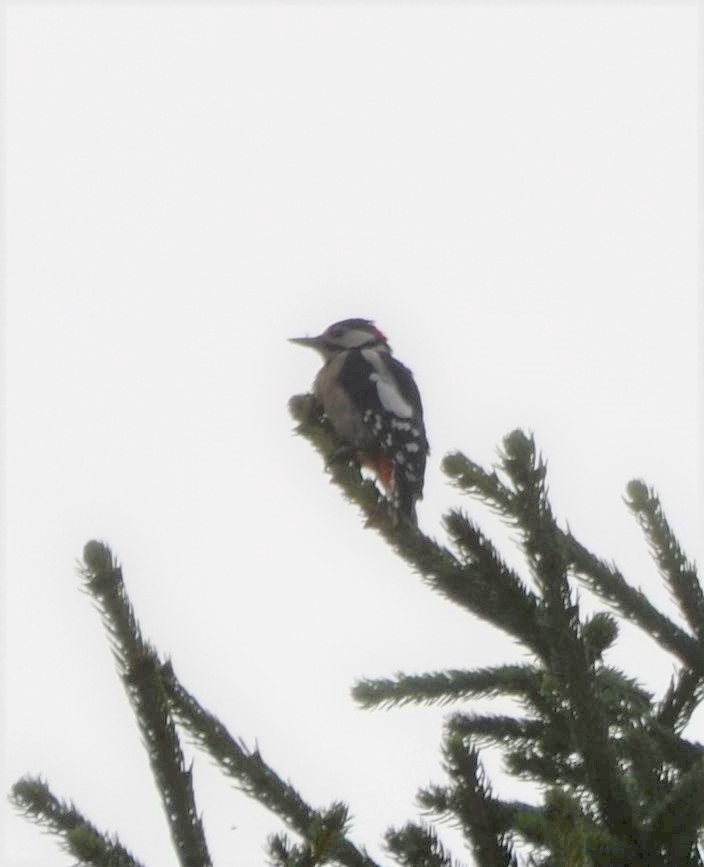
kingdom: Animalia
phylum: Chordata
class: Aves
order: Piciformes
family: Picidae
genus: Dendrocopos
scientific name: Dendrocopos major
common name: Great spotted woodpecker
